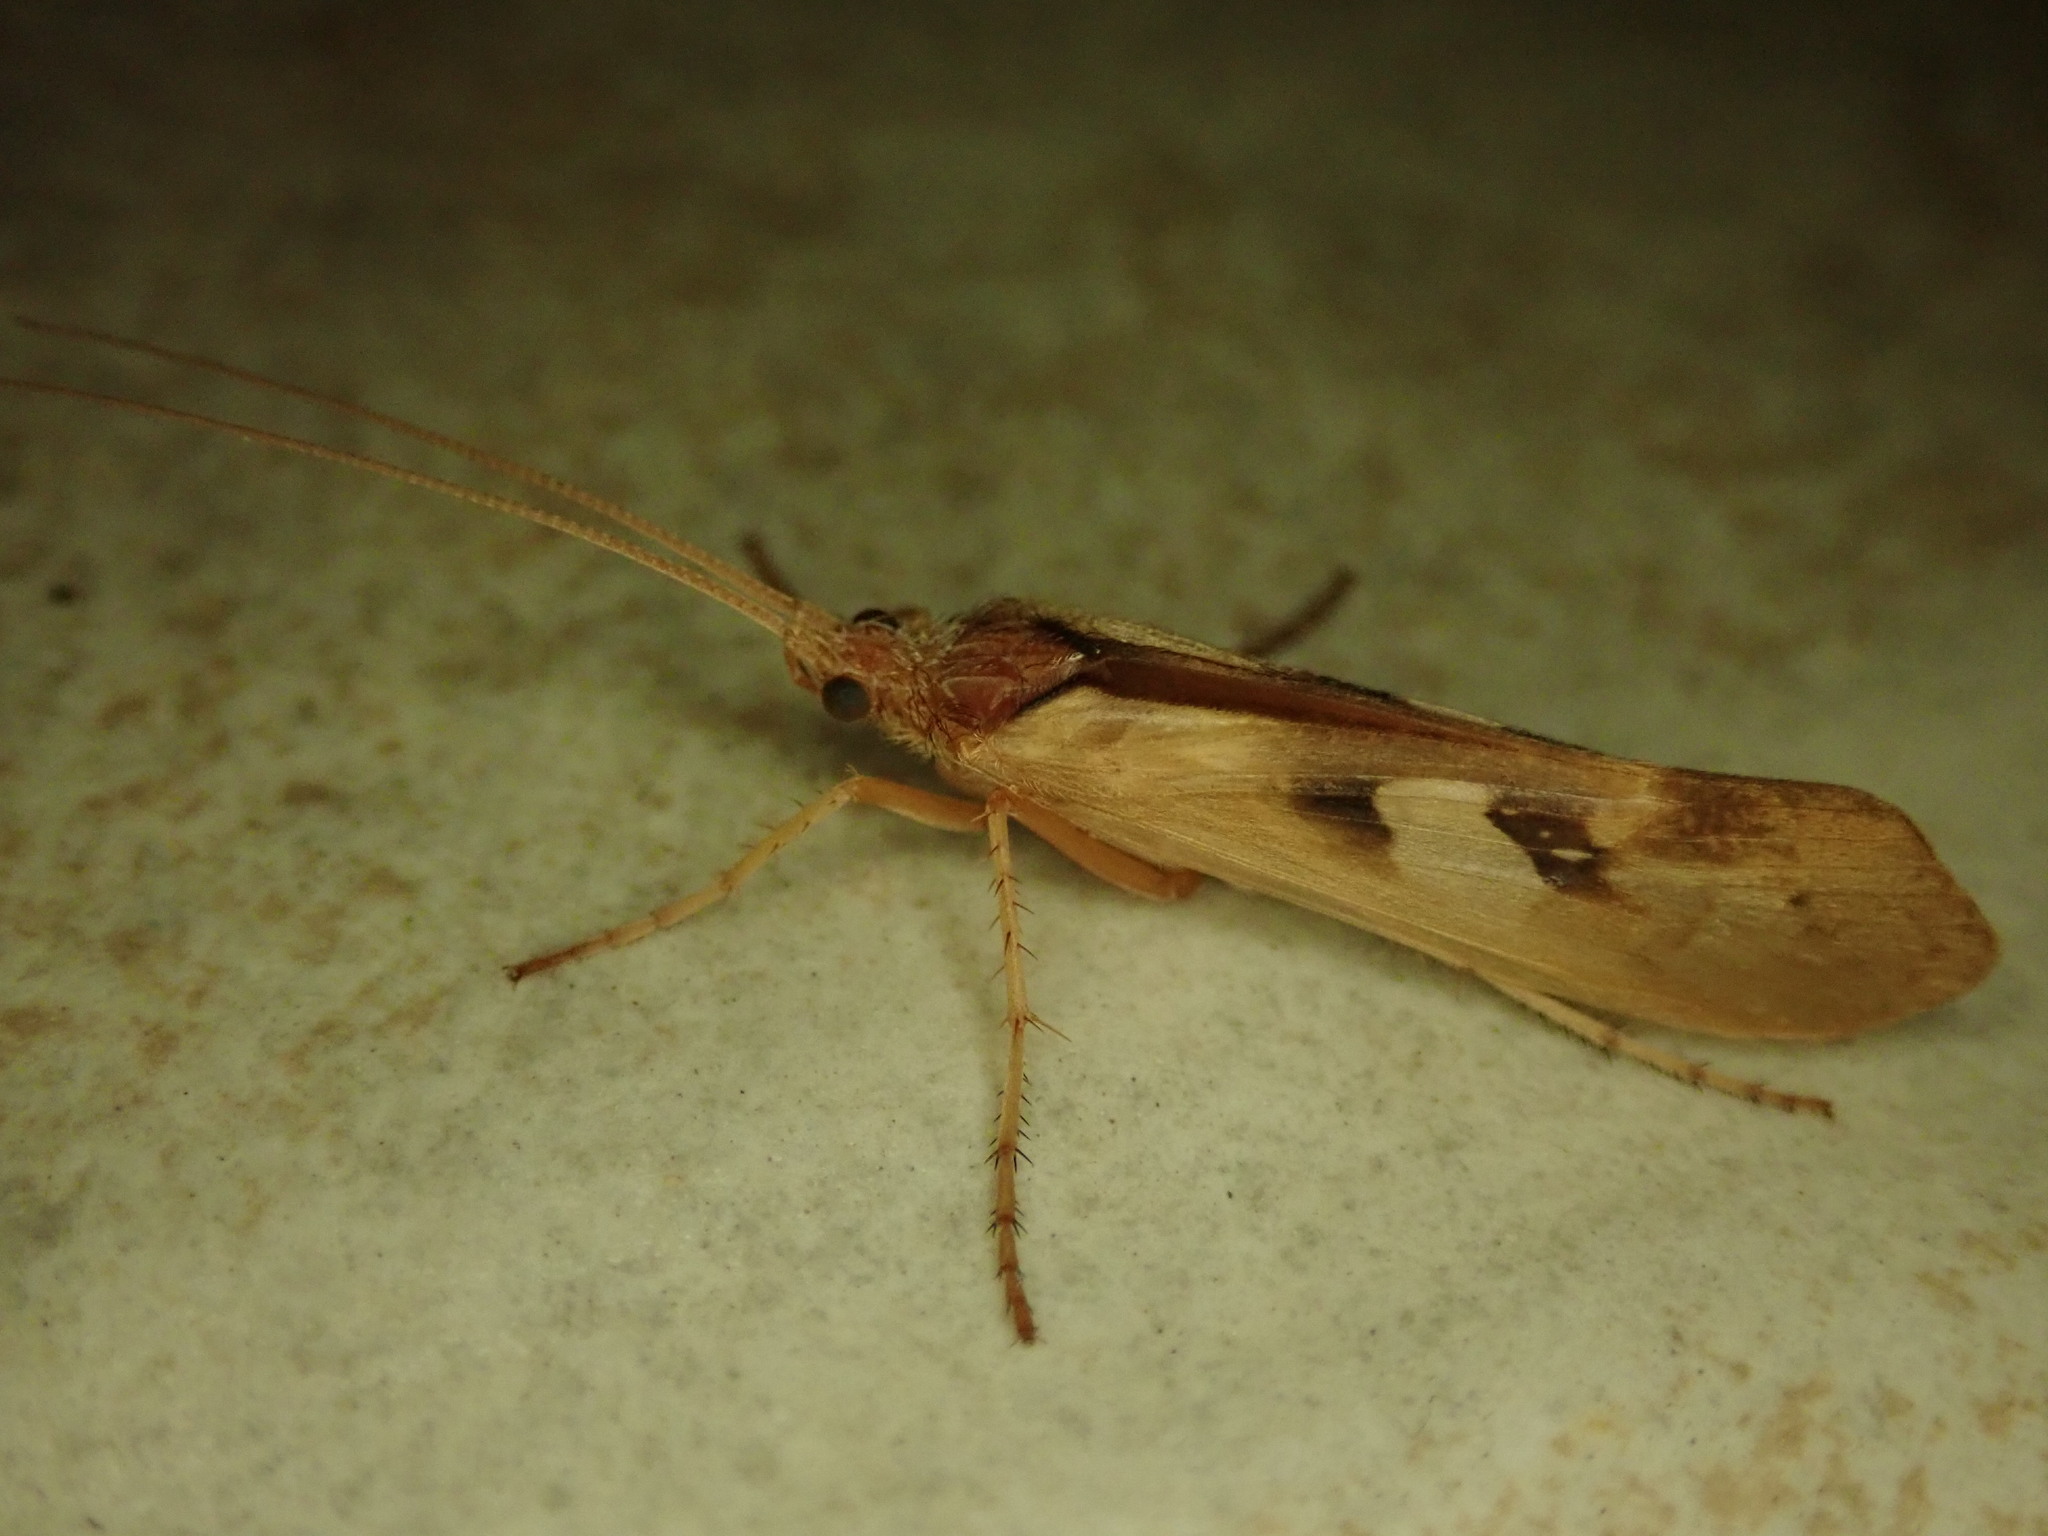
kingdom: Animalia
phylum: Arthropoda
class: Insecta
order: Trichoptera
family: Limnephilidae
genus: Limnephilus
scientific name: Limnephilus rhombicus
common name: Diamond northern caddisfly
